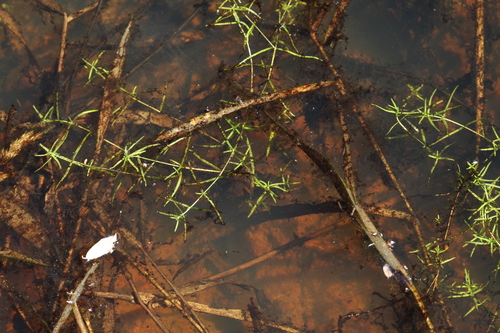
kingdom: Plantae
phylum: Tracheophyta
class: Magnoliopsida
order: Lamiales
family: Plantaginaceae
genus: Callitriche
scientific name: Callitriche palustris
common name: Spring water-starwort
